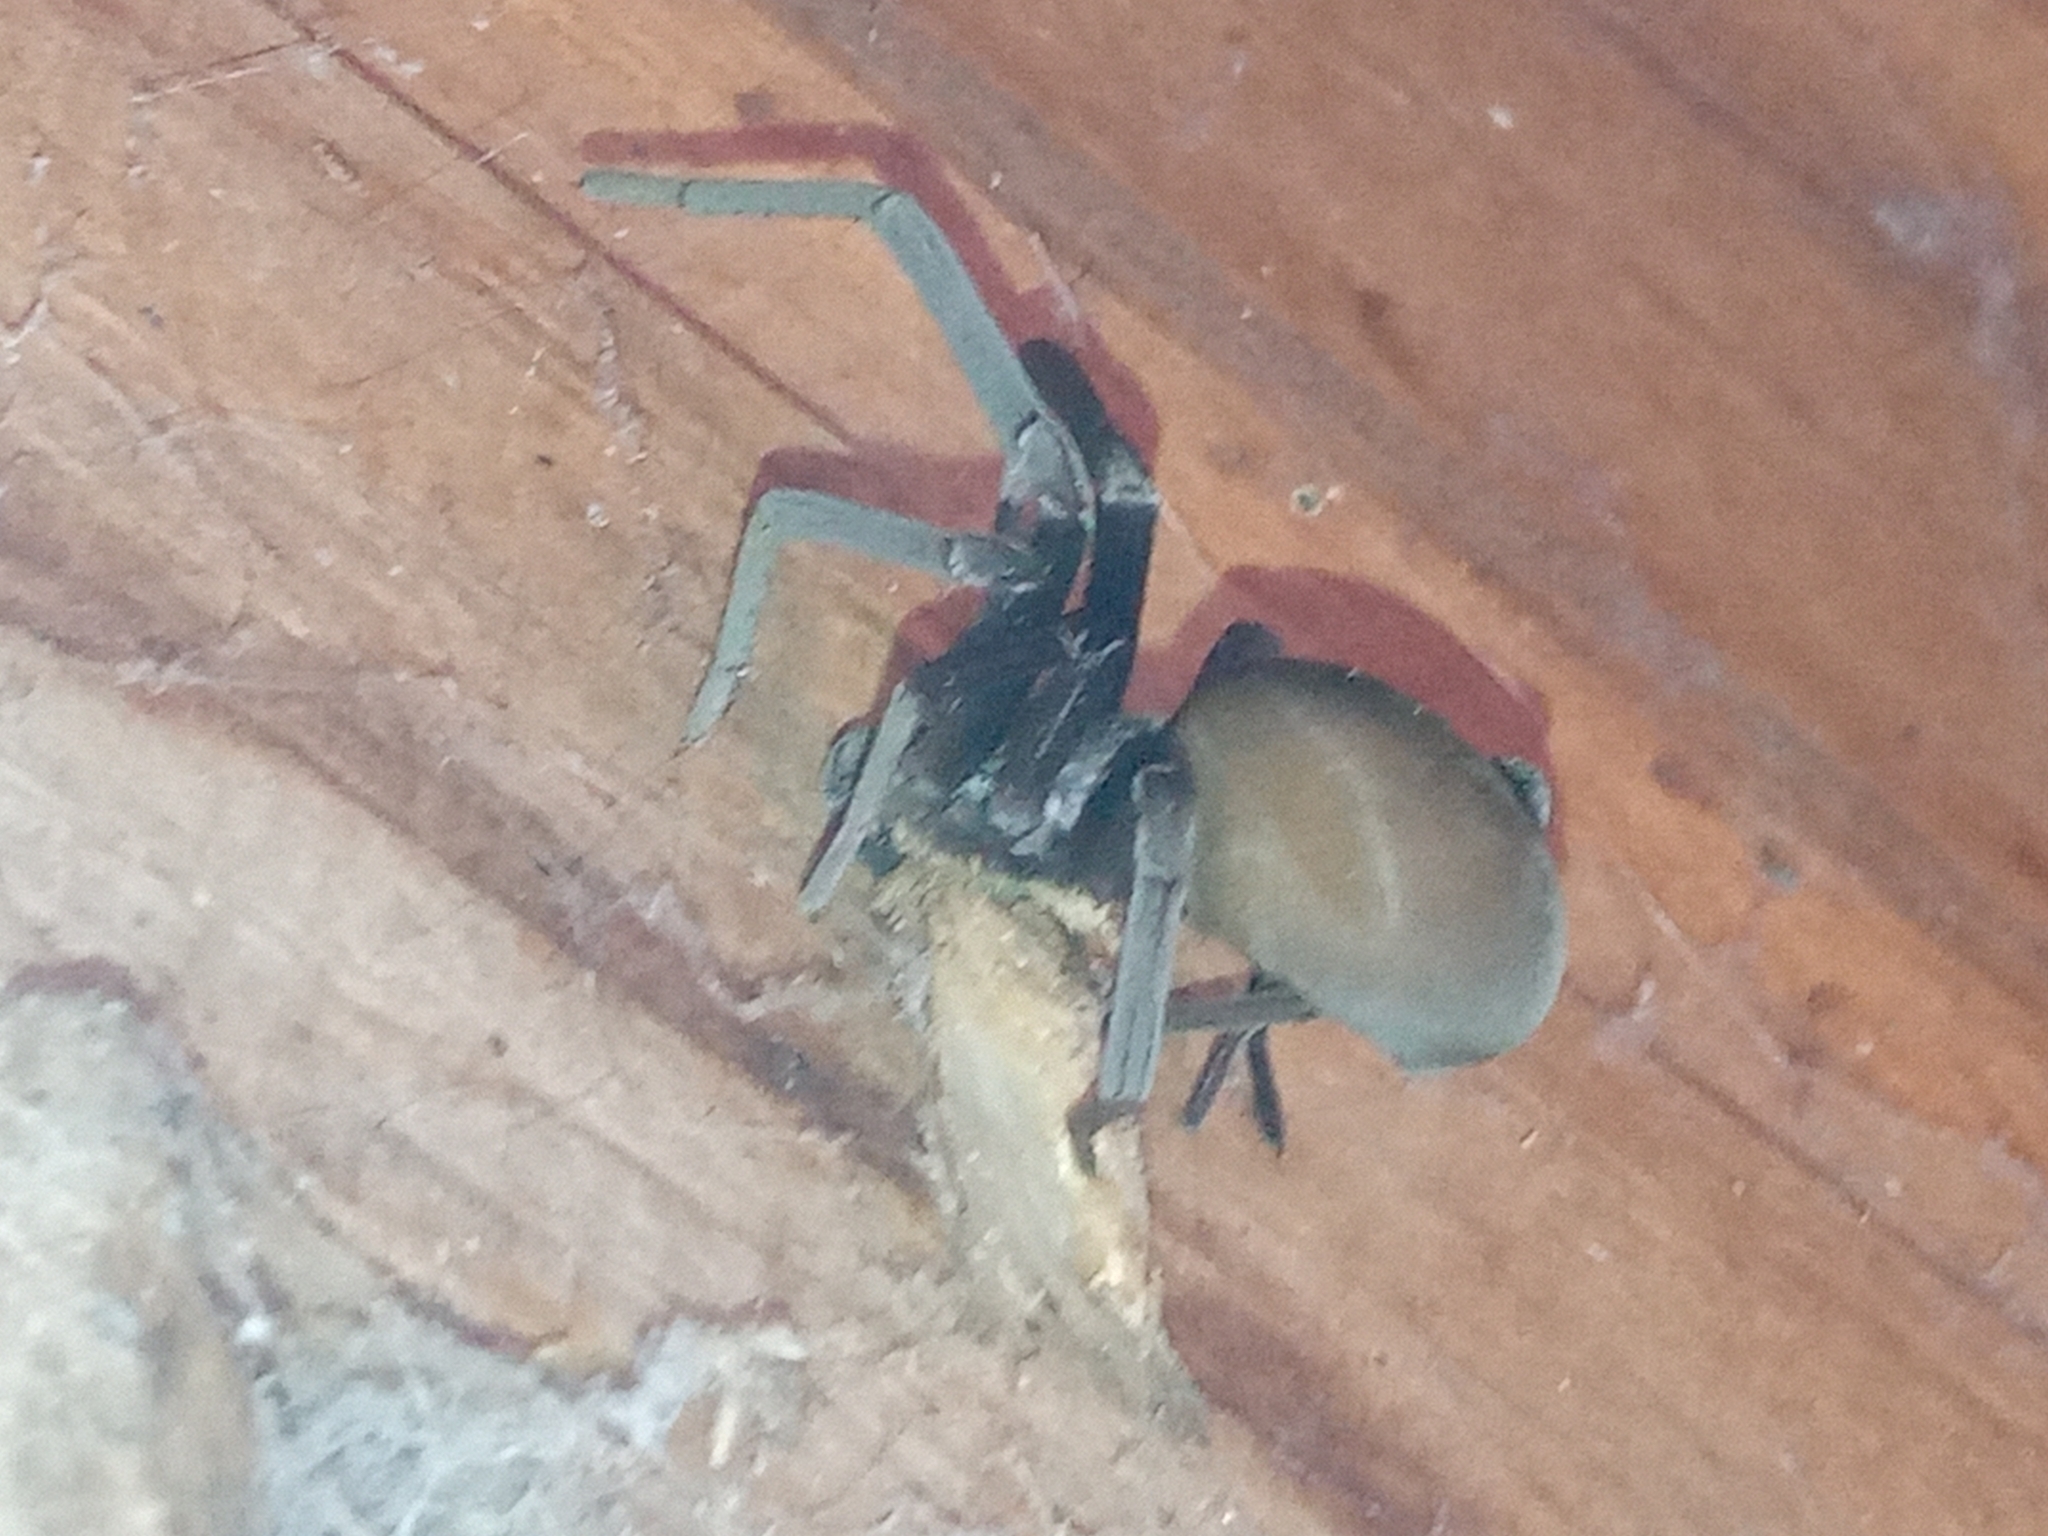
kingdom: Animalia
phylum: Arthropoda
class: Arachnida
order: Araneae
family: Filistatidae
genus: Kukulcania
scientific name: Kukulcania hibernalis
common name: Crevice weaver
